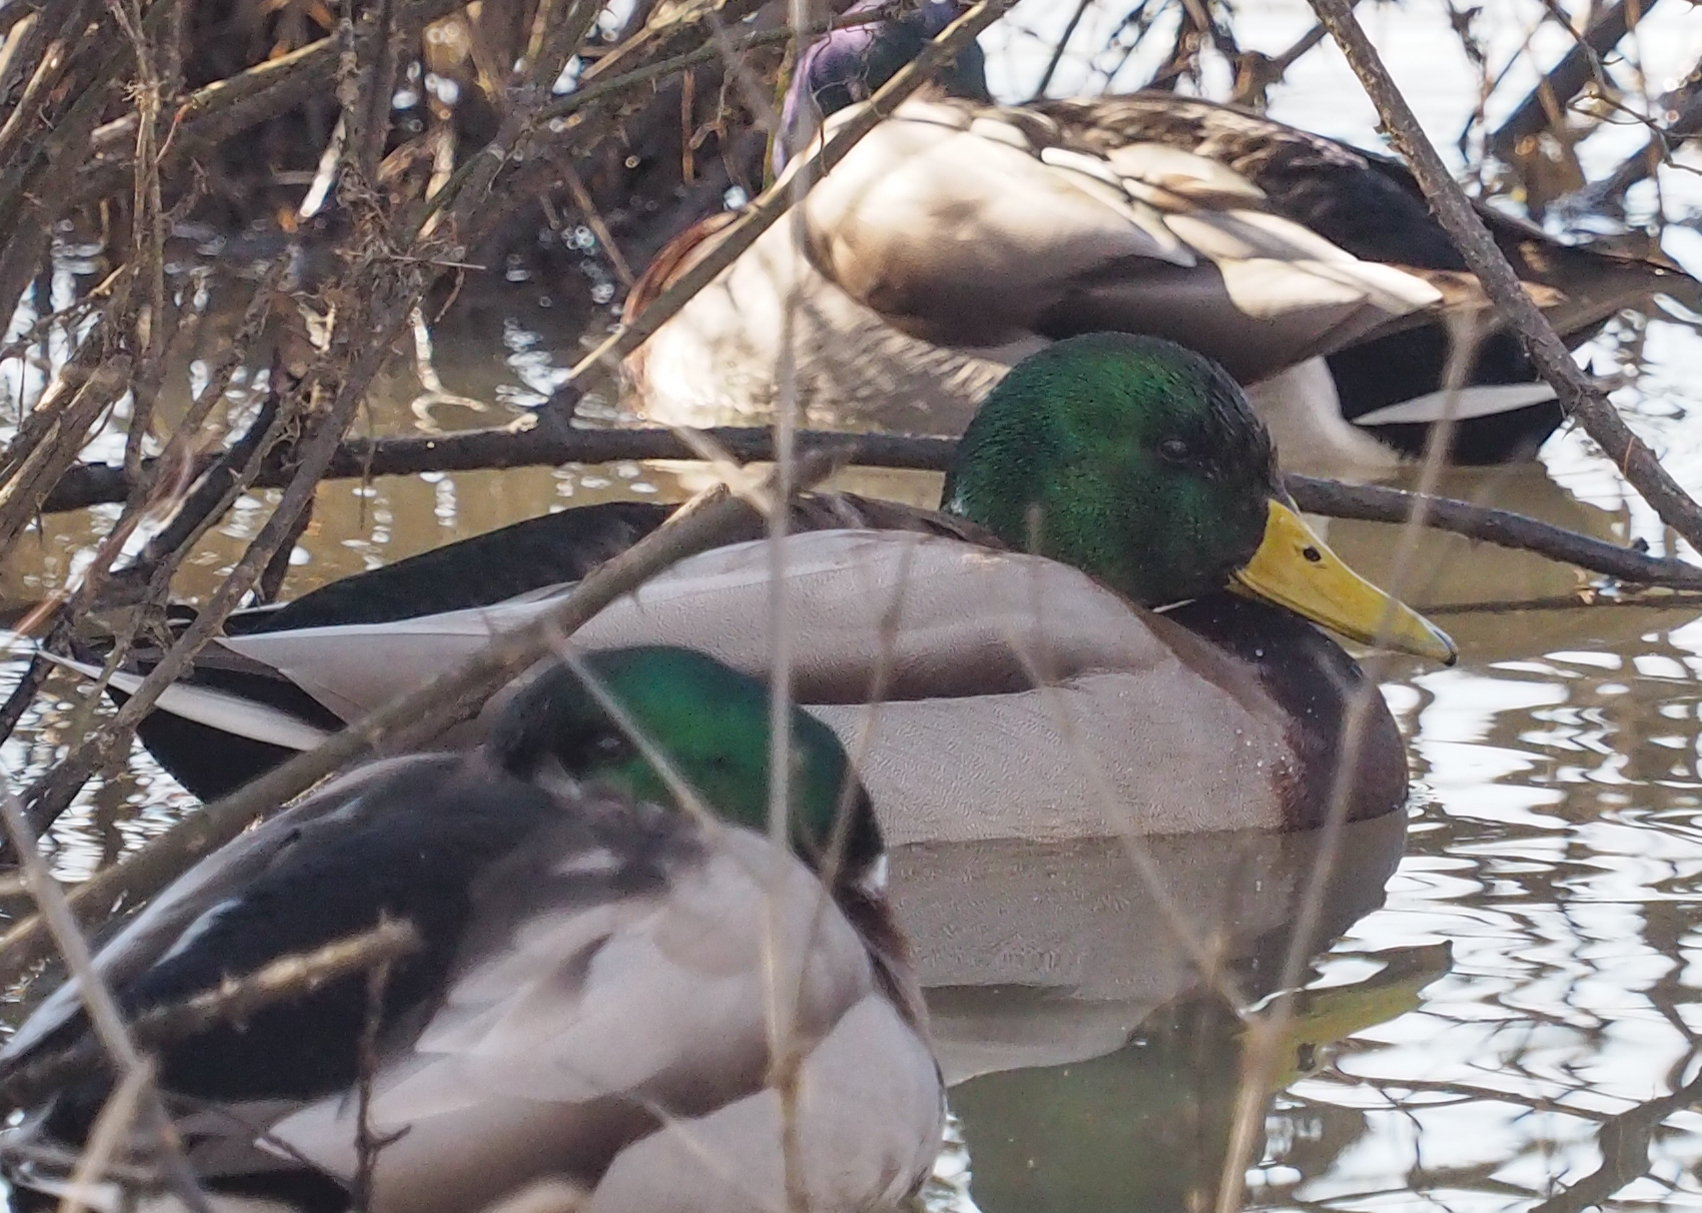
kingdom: Animalia
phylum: Chordata
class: Aves
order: Anseriformes
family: Anatidae
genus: Anas
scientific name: Anas platyrhynchos
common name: Mallard
